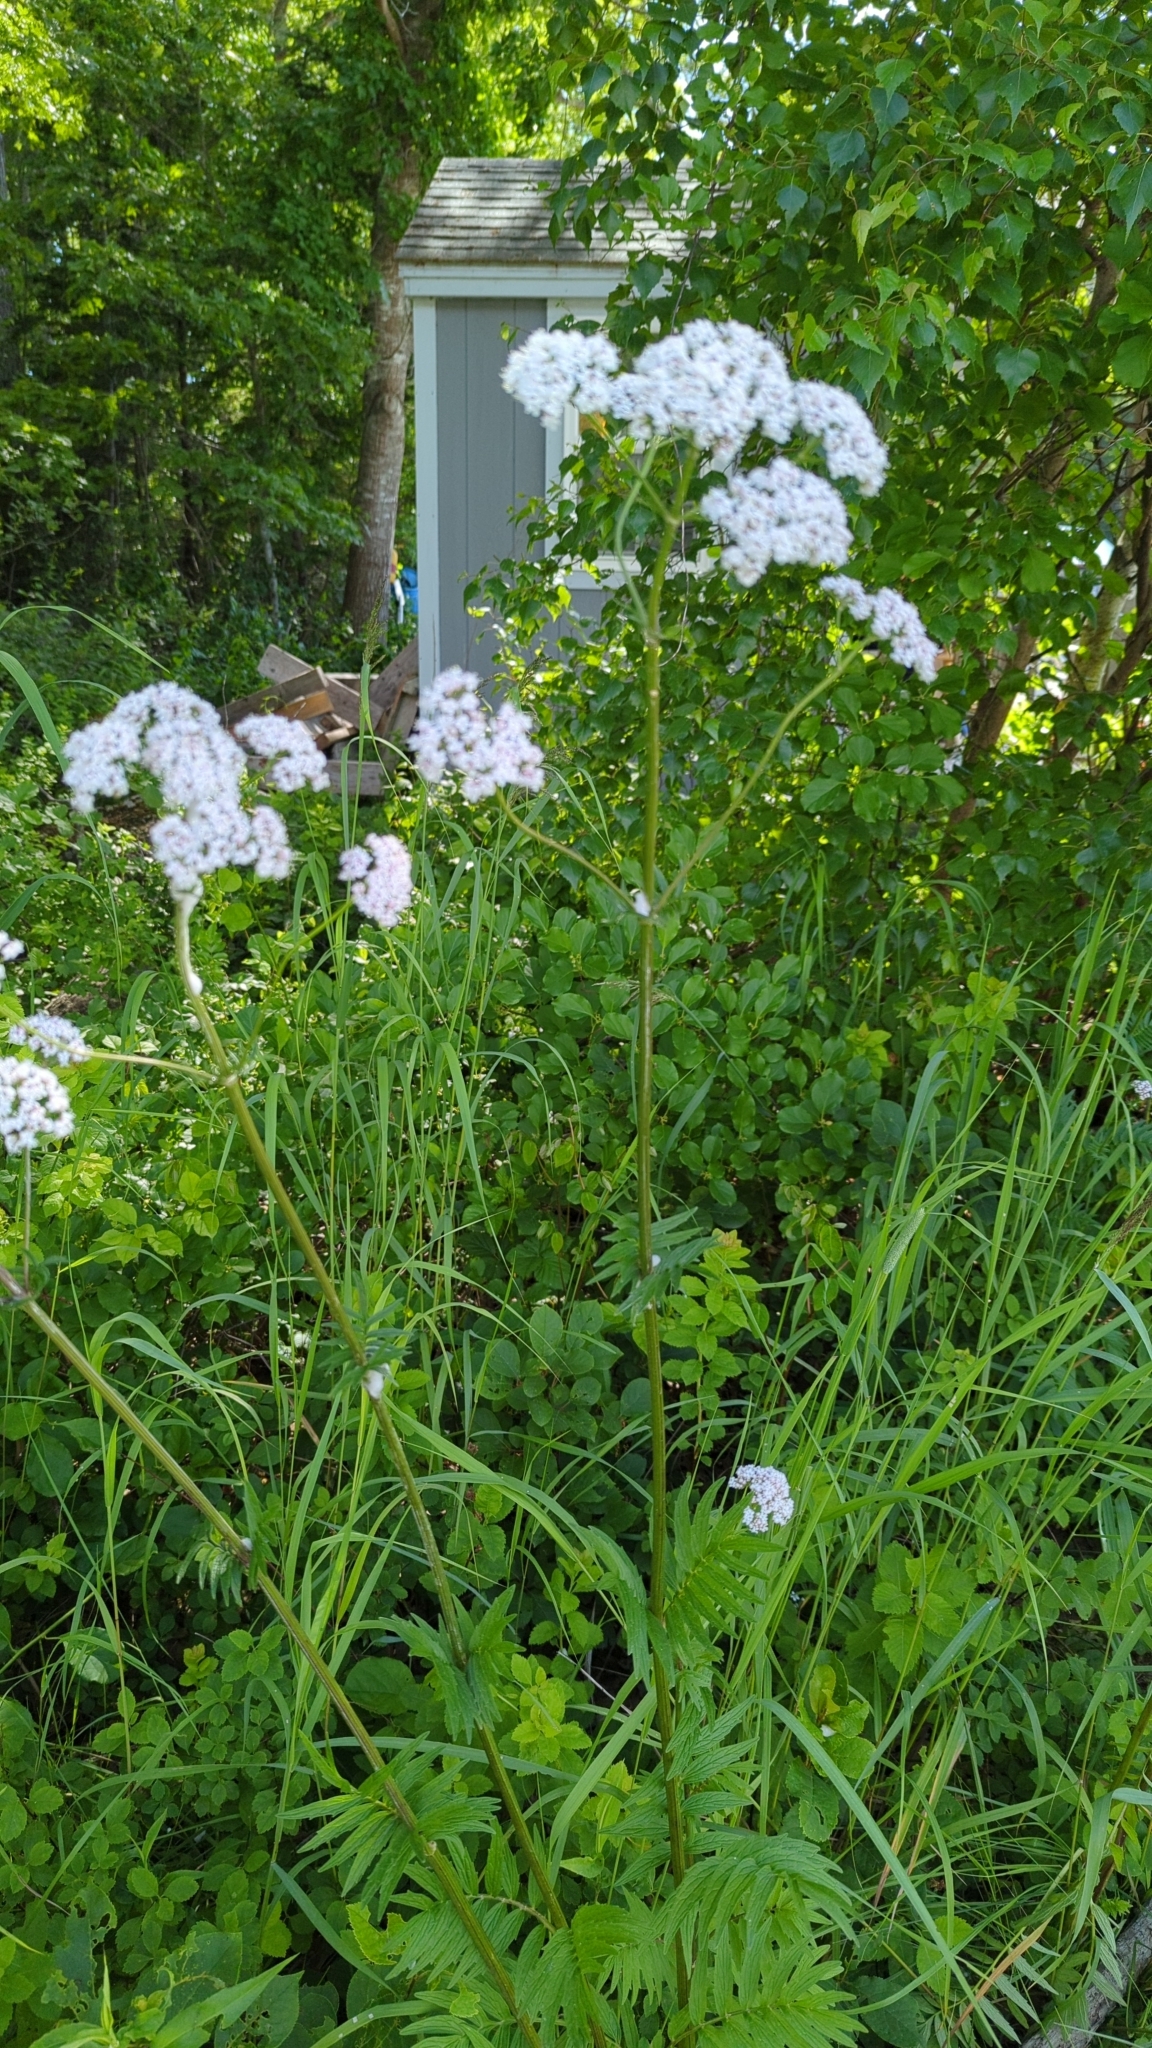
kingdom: Plantae
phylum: Tracheophyta
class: Magnoliopsida
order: Dipsacales
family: Caprifoliaceae
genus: Valeriana
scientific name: Valeriana officinalis
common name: Common valerian
